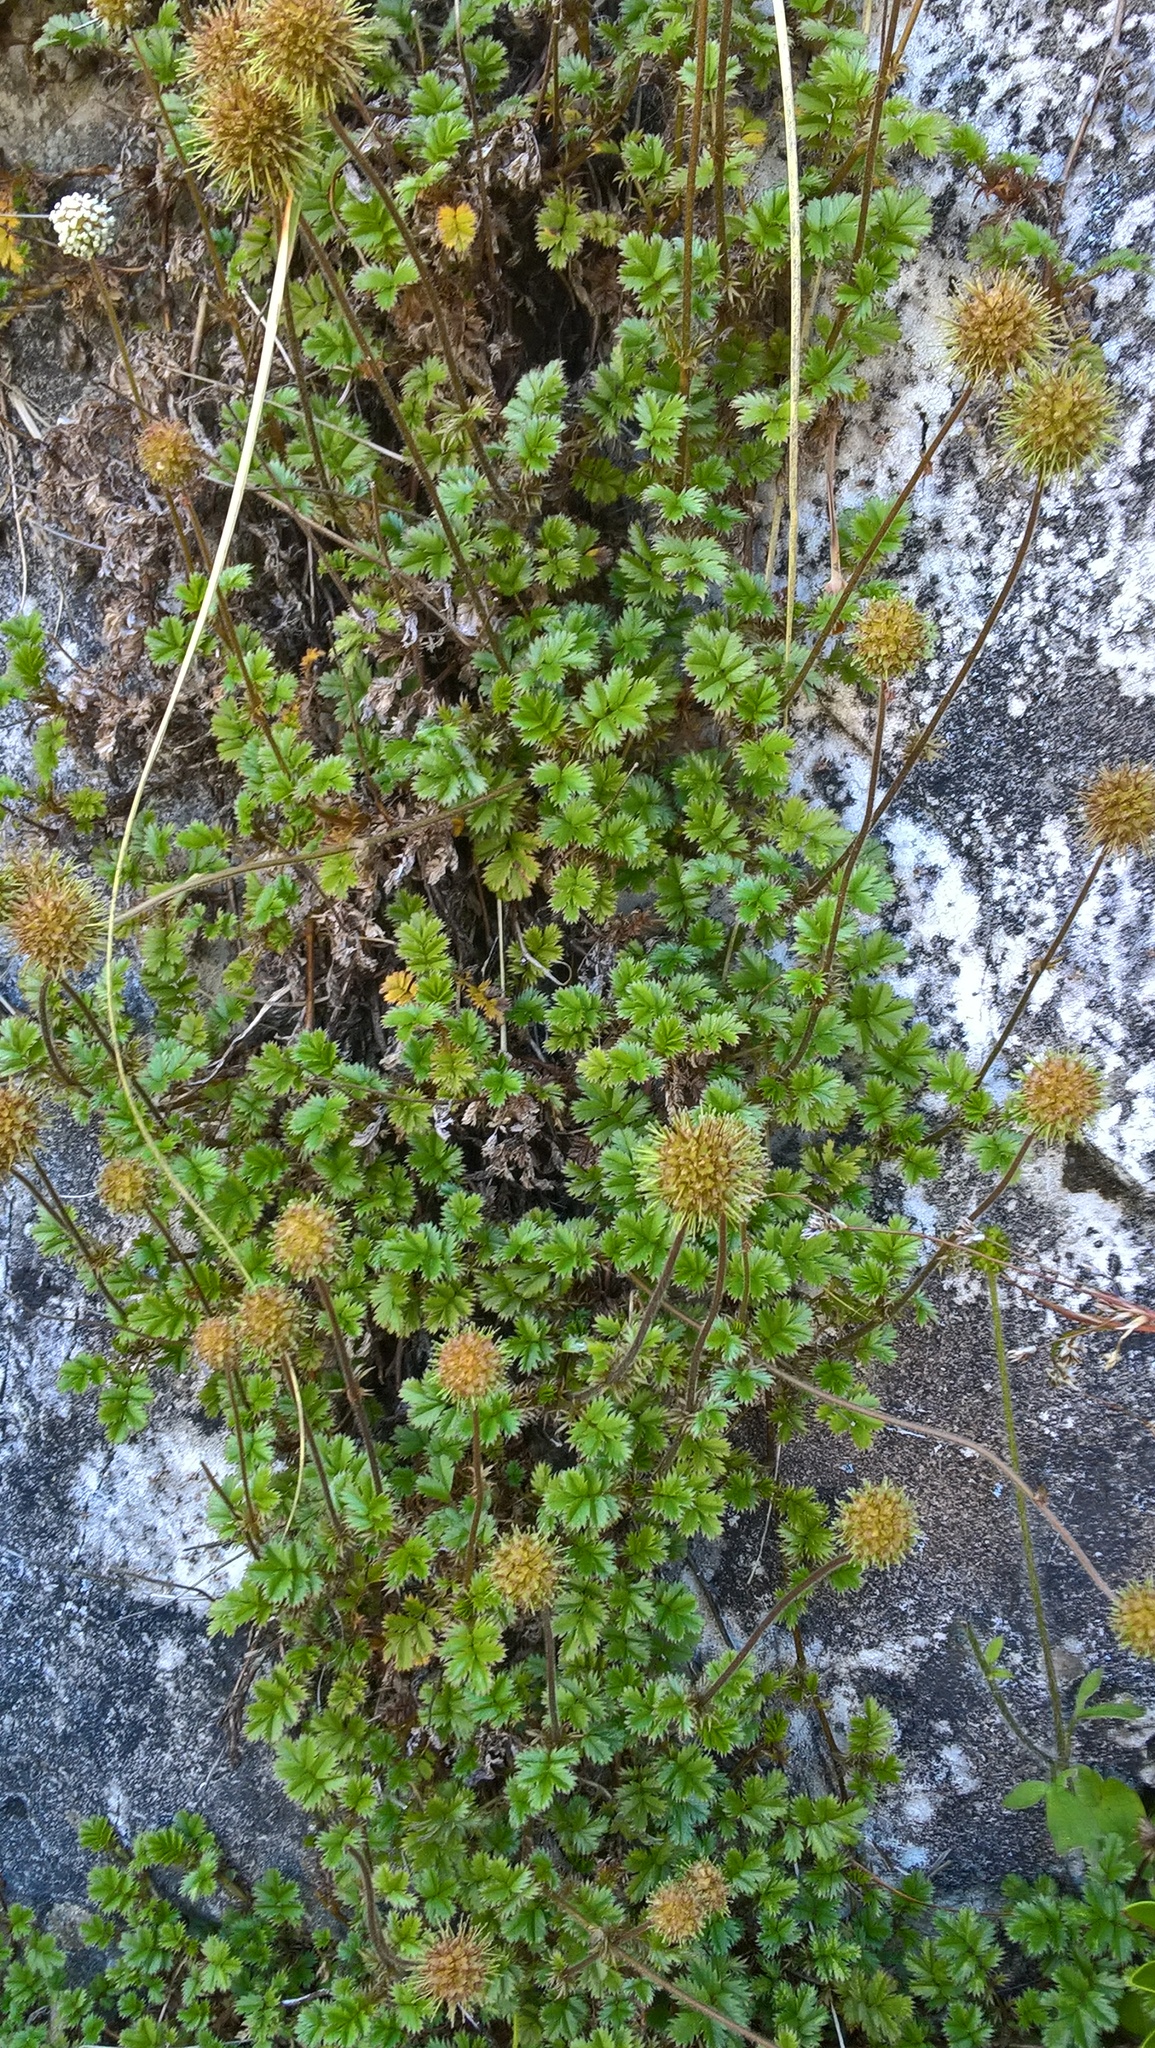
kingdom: Plantae
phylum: Tracheophyta
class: Magnoliopsida
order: Rosales
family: Rosaceae
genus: Acaena
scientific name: Acaena anserinifolia
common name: Bronze pirri-pirri-bur
